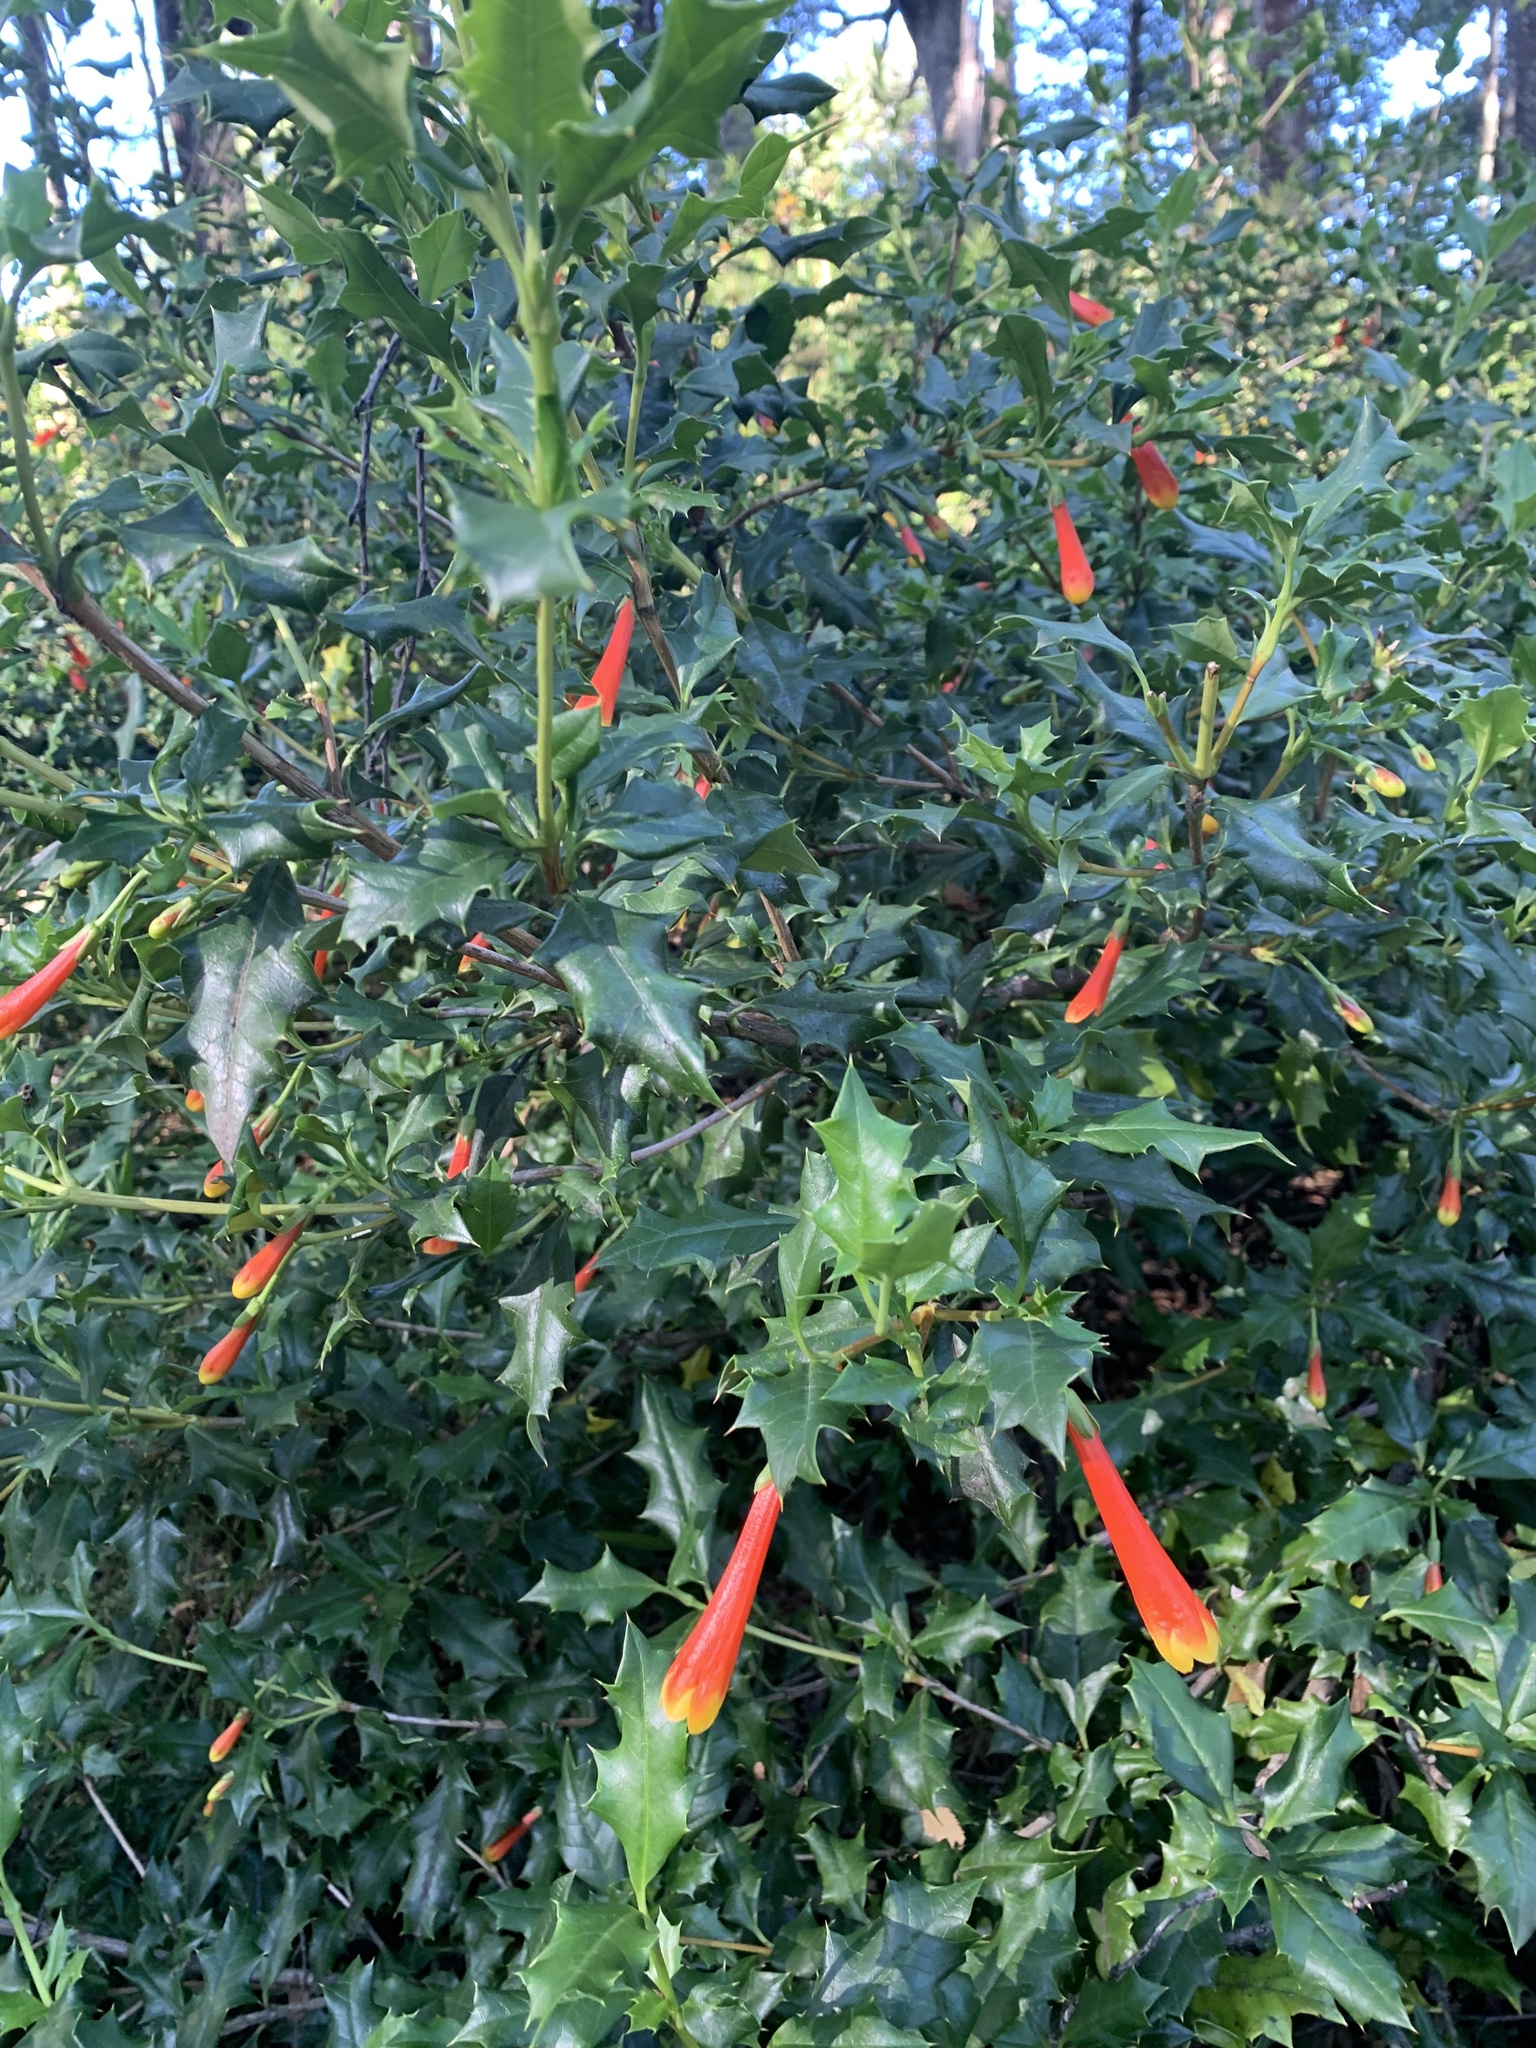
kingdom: Plantae
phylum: Tracheophyta
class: Magnoliopsida
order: Bruniales
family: Columelliaceae
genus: Desfontainia
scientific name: Desfontainia fulgens
